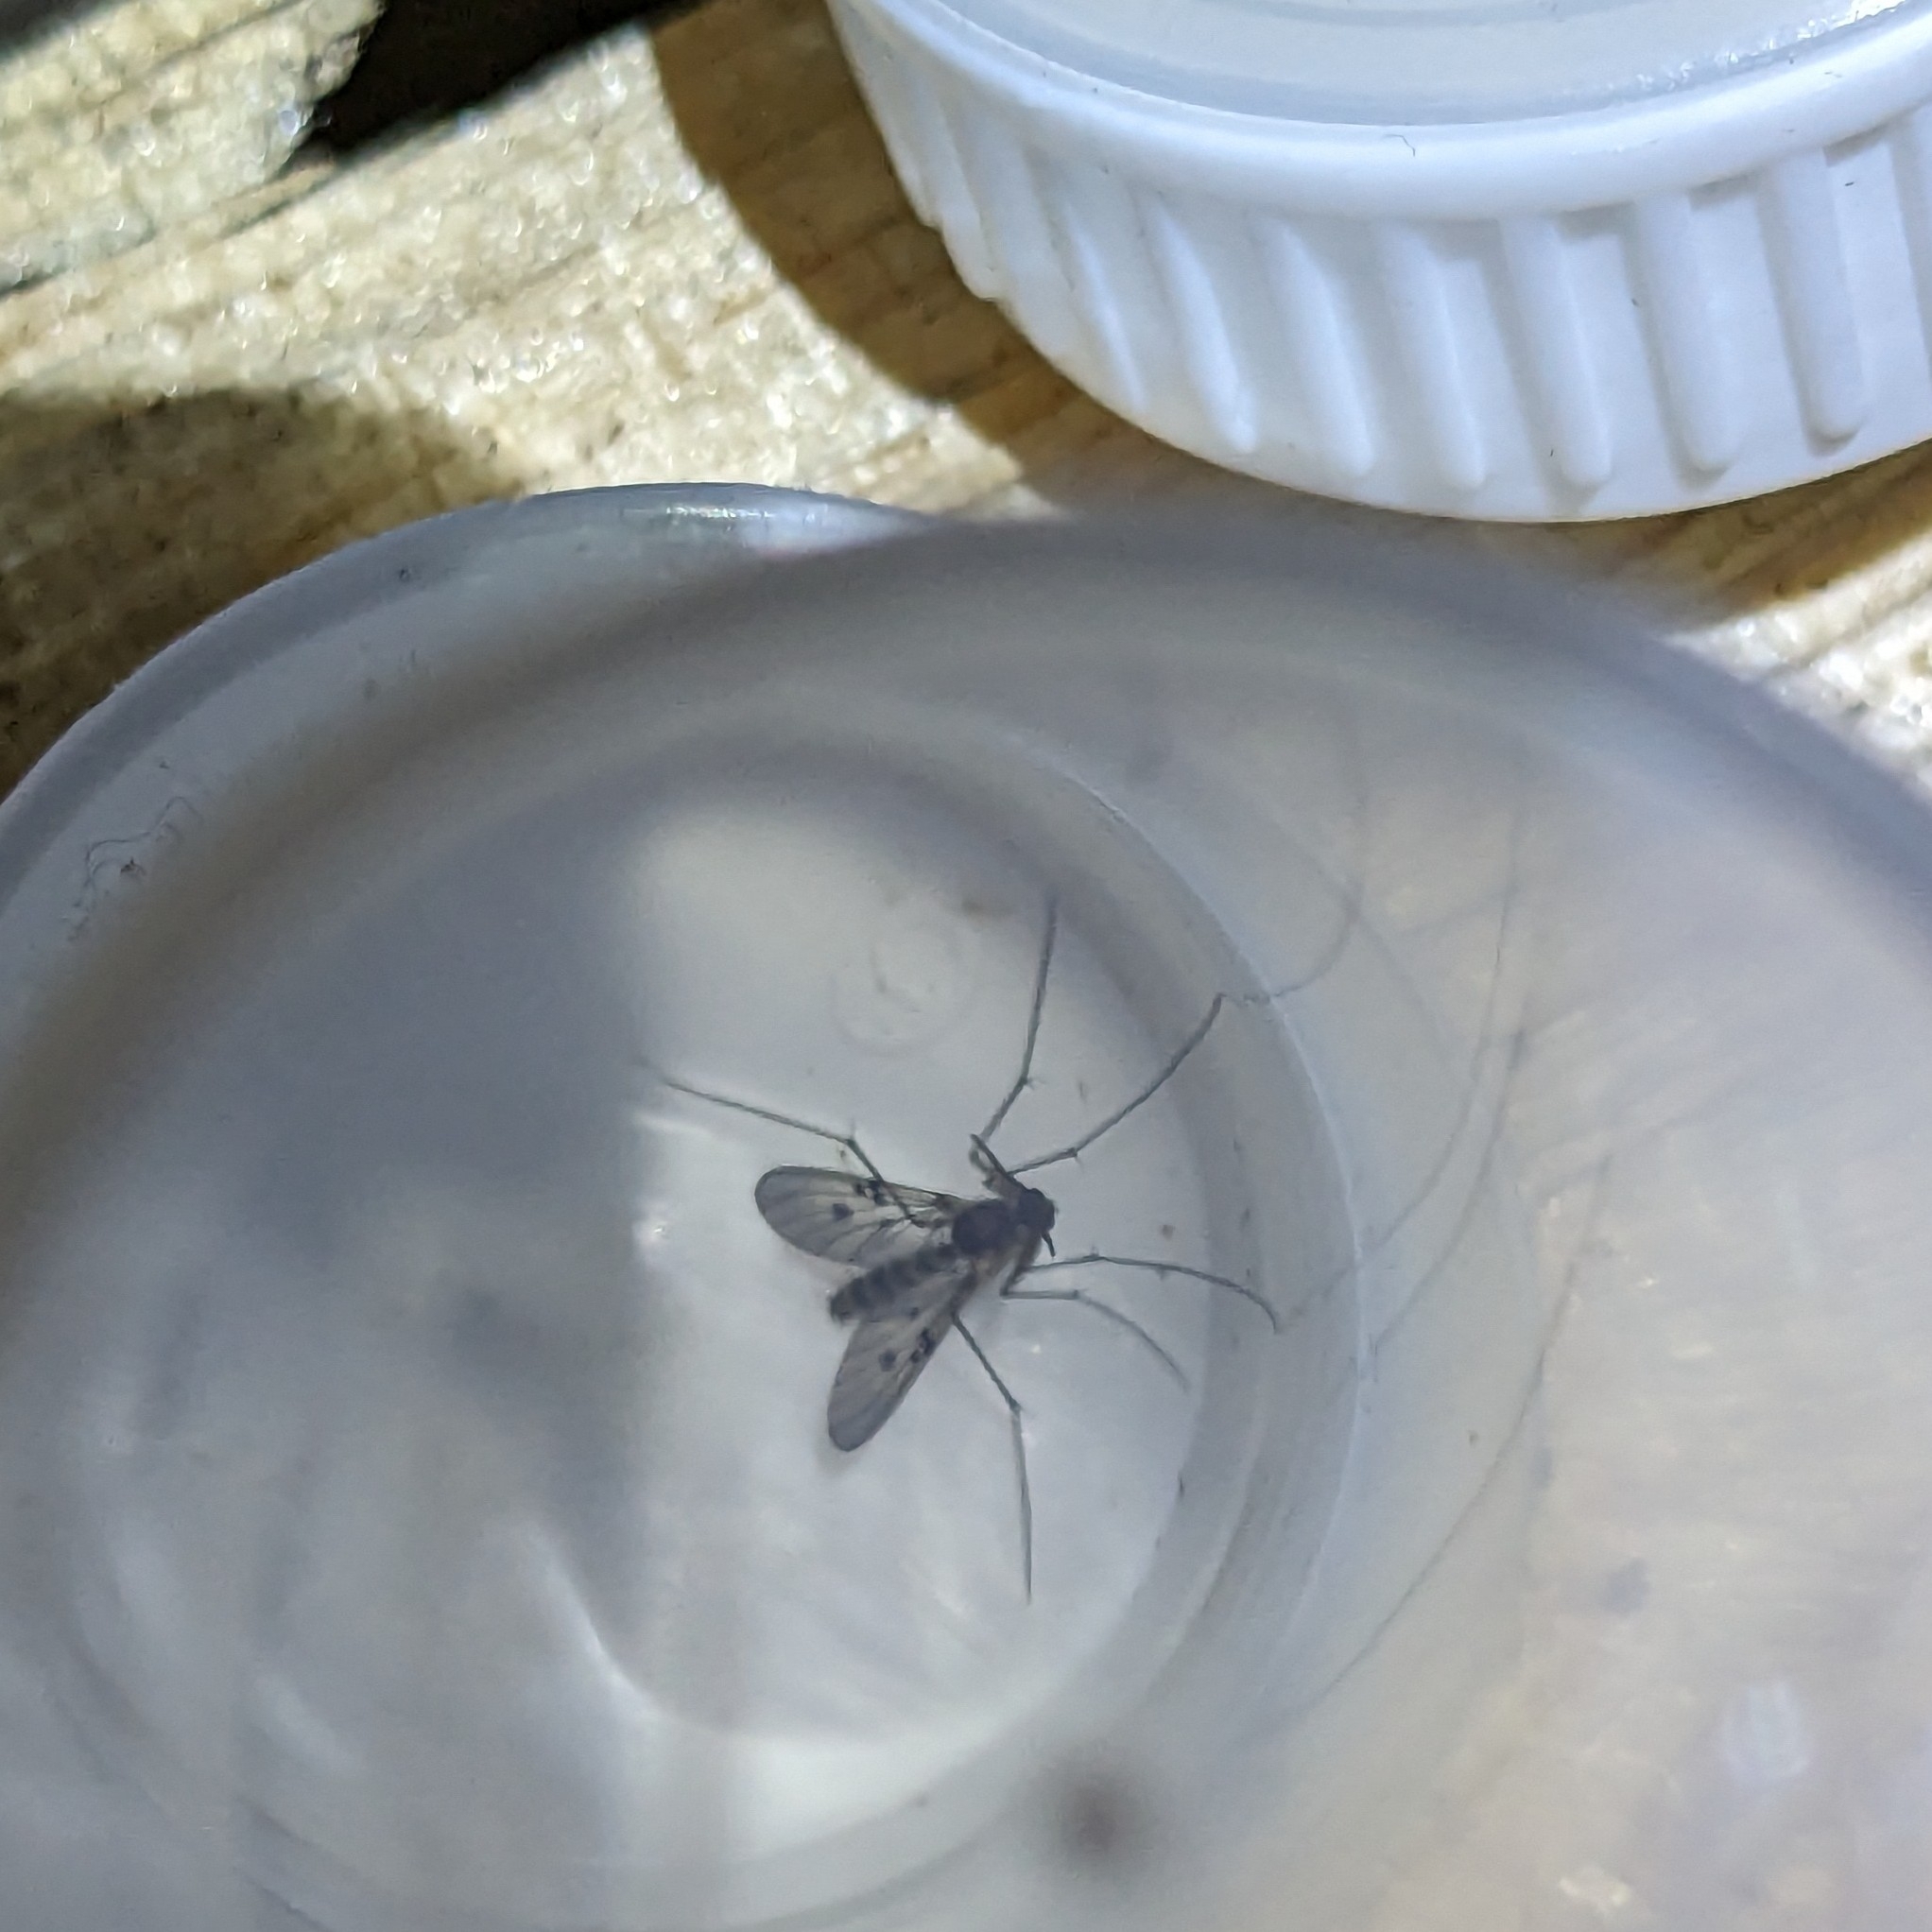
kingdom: Animalia
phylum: Arthropoda
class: Insecta
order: Diptera
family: Mycetophilidae
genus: Mycomya
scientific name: Mycomya quadrimaculata
